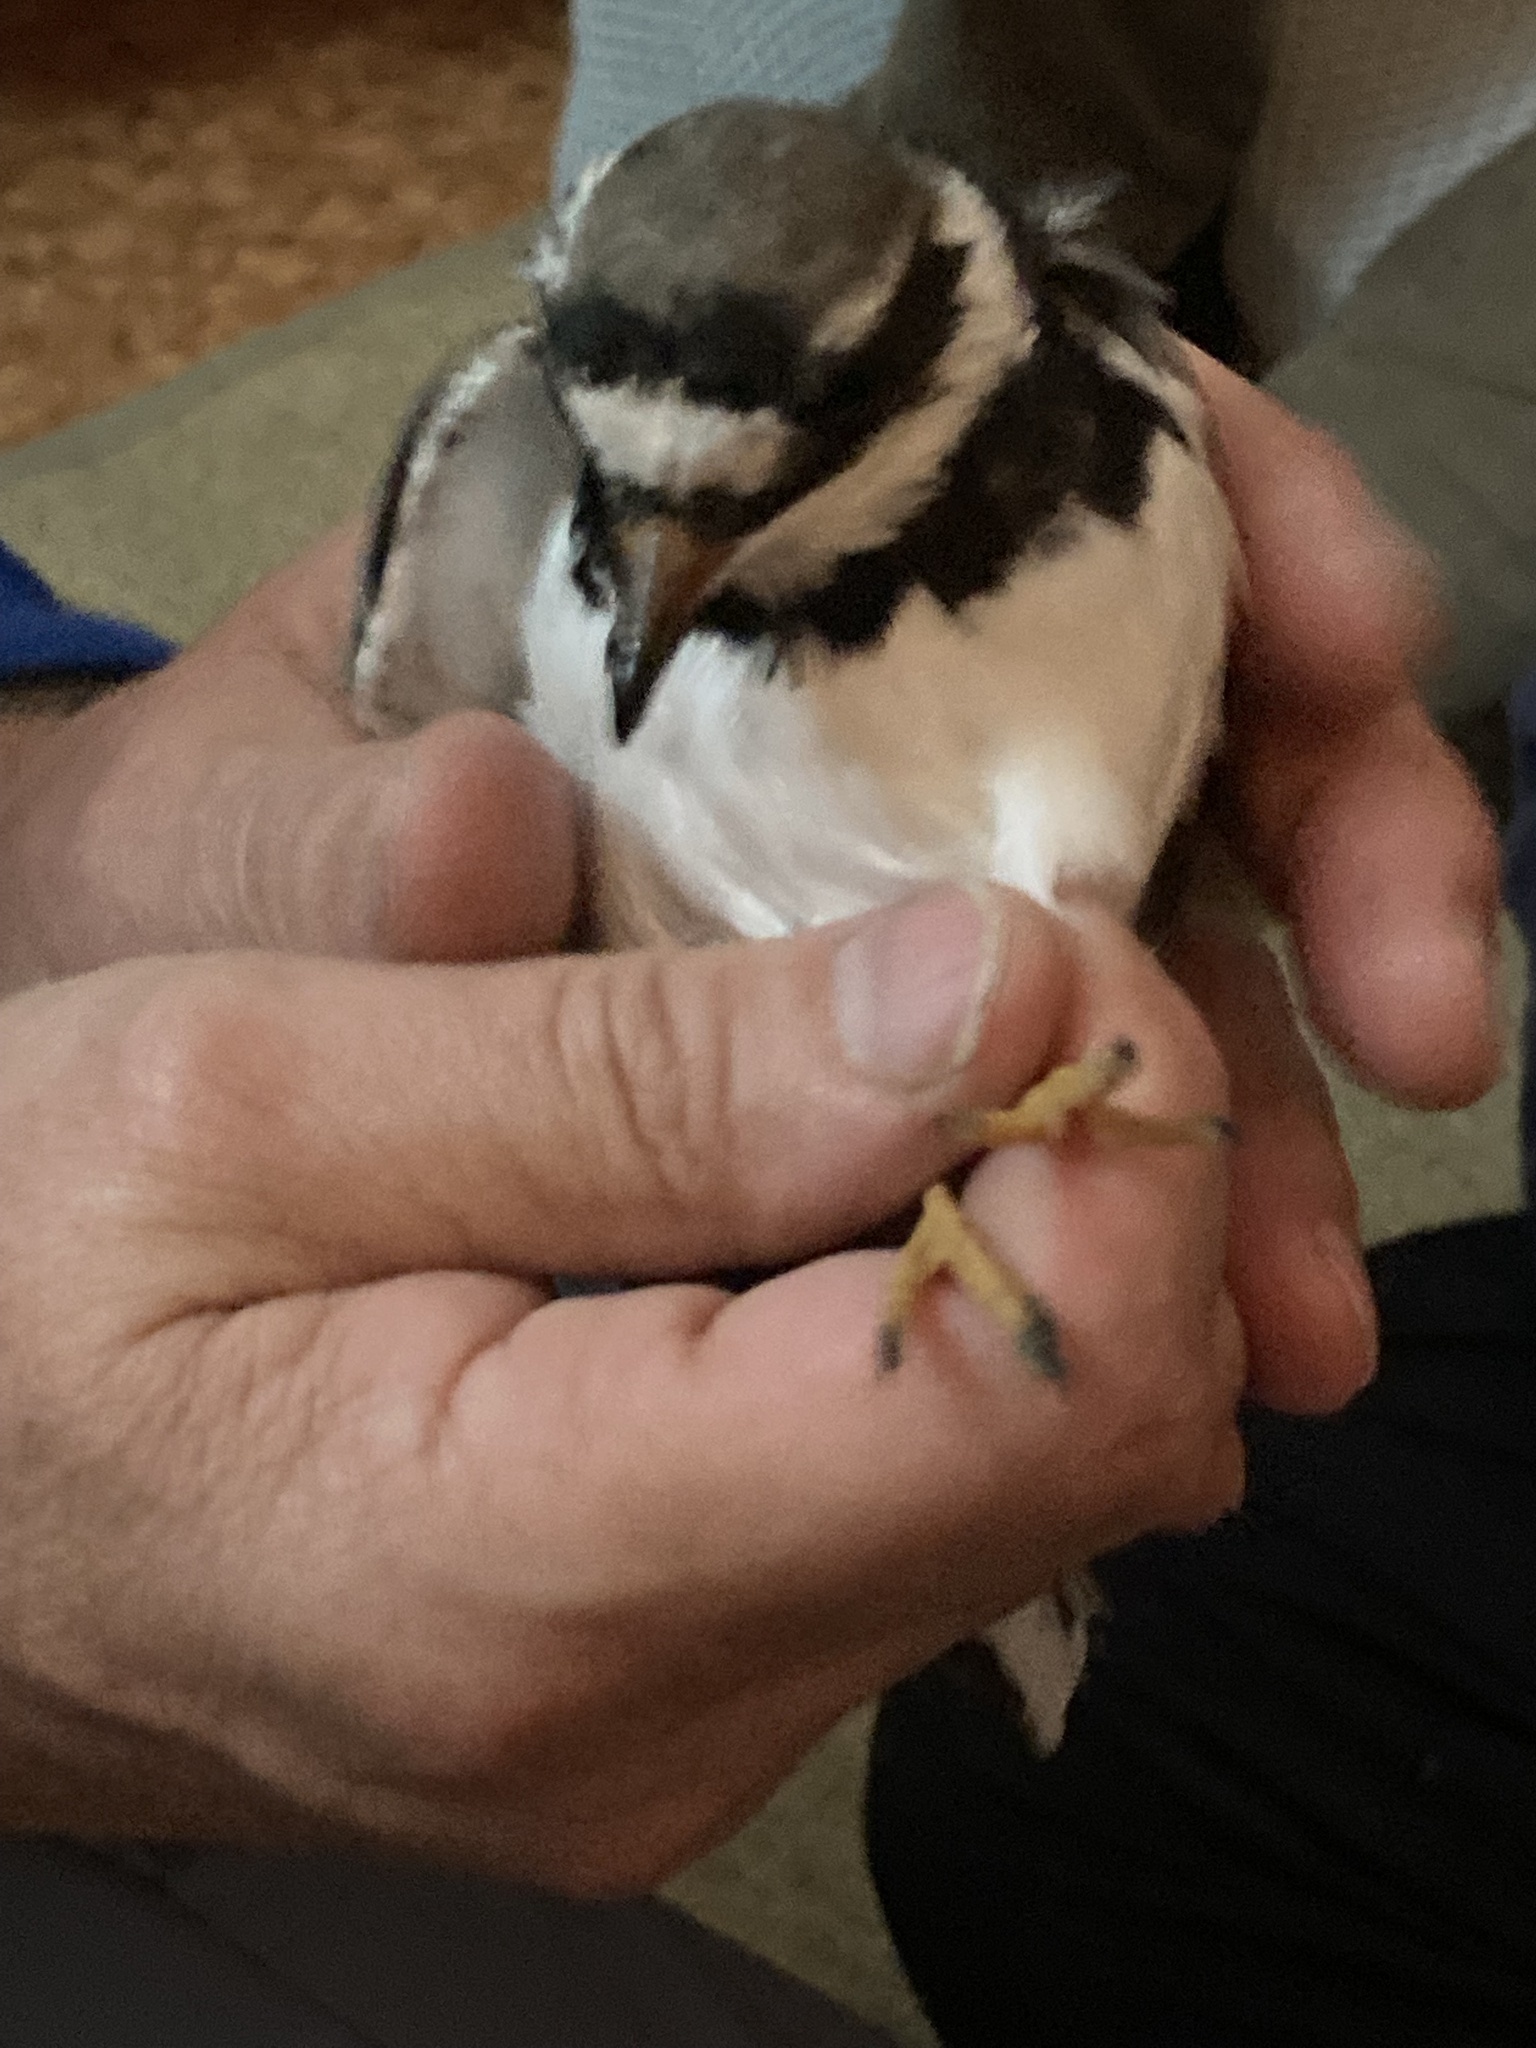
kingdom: Animalia
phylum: Chordata
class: Aves
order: Charadriiformes
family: Charadriidae
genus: Charadrius
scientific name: Charadrius hiaticula
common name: Common ringed plover
